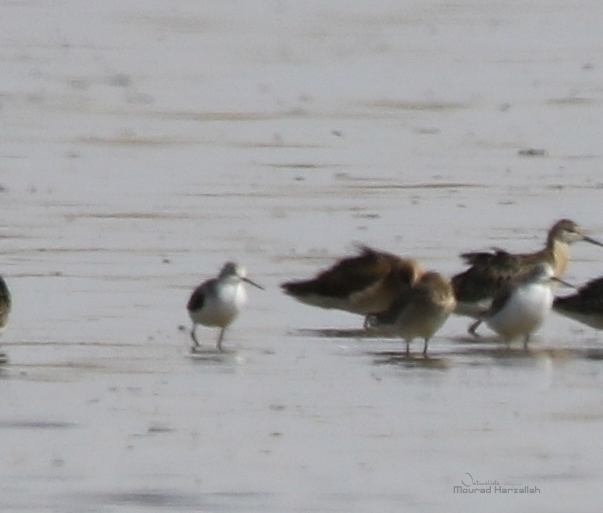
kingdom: Animalia
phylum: Chordata
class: Aves
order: Charadriiformes
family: Scolopacidae
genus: Tringa
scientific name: Tringa stagnatilis
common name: Marsh sandpiper
